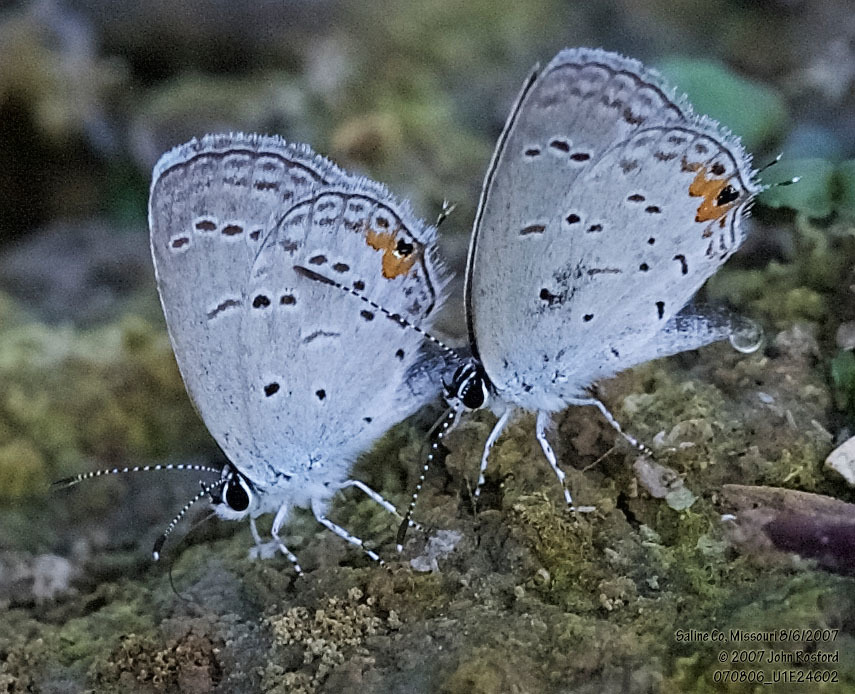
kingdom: Animalia
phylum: Arthropoda
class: Insecta
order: Lepidoptera
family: Lycaenidae
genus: Elkalyce
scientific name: Elkalyce comyntas
